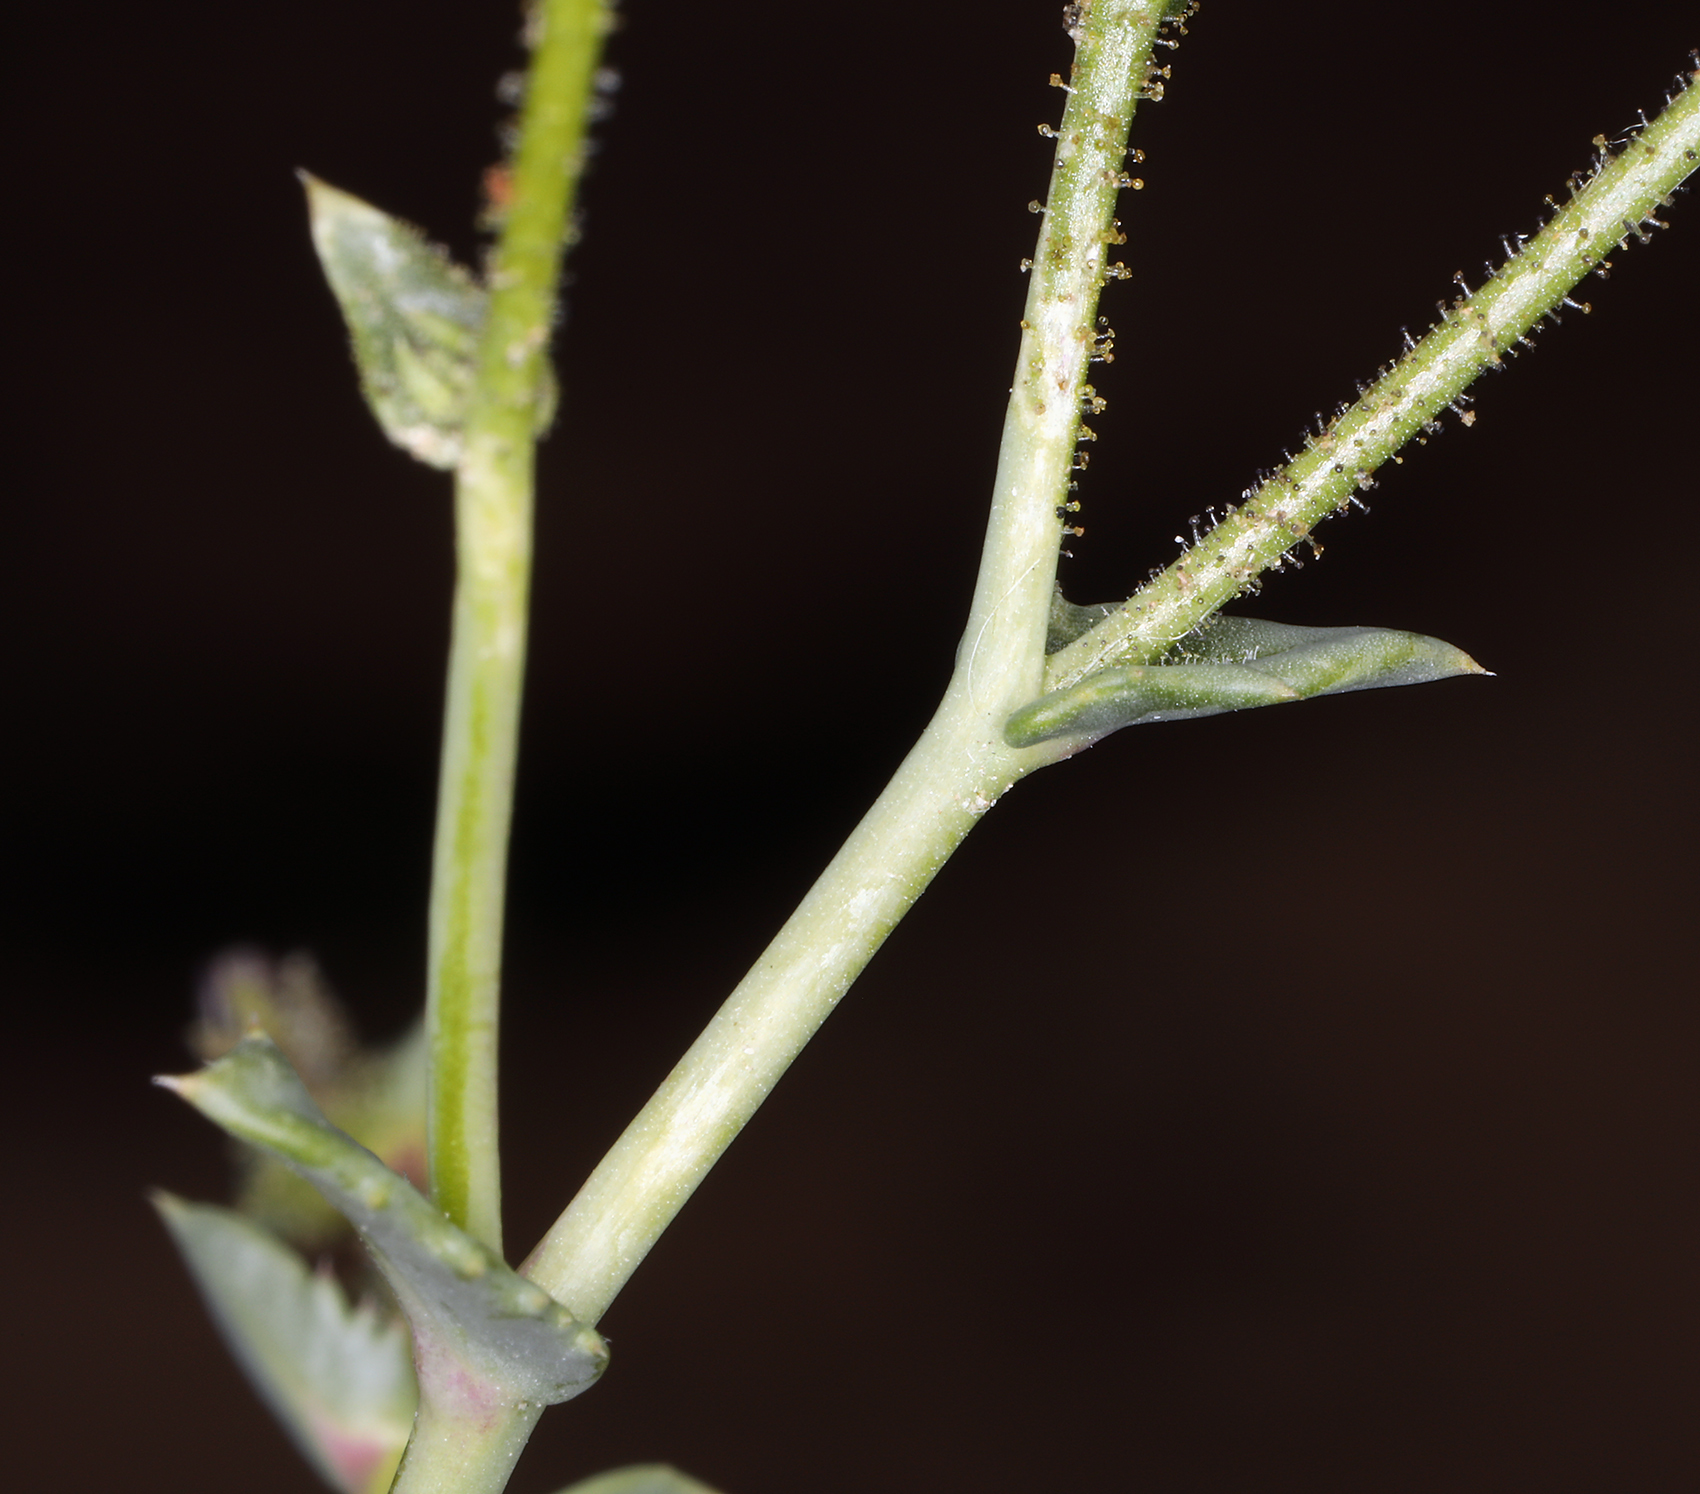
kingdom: Plantae
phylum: Tracheophyta
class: Magnoliopsida
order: Ericales
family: Polemoniaceae
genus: Gilia
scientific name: Gilia sinuata
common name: Rosy gilia
